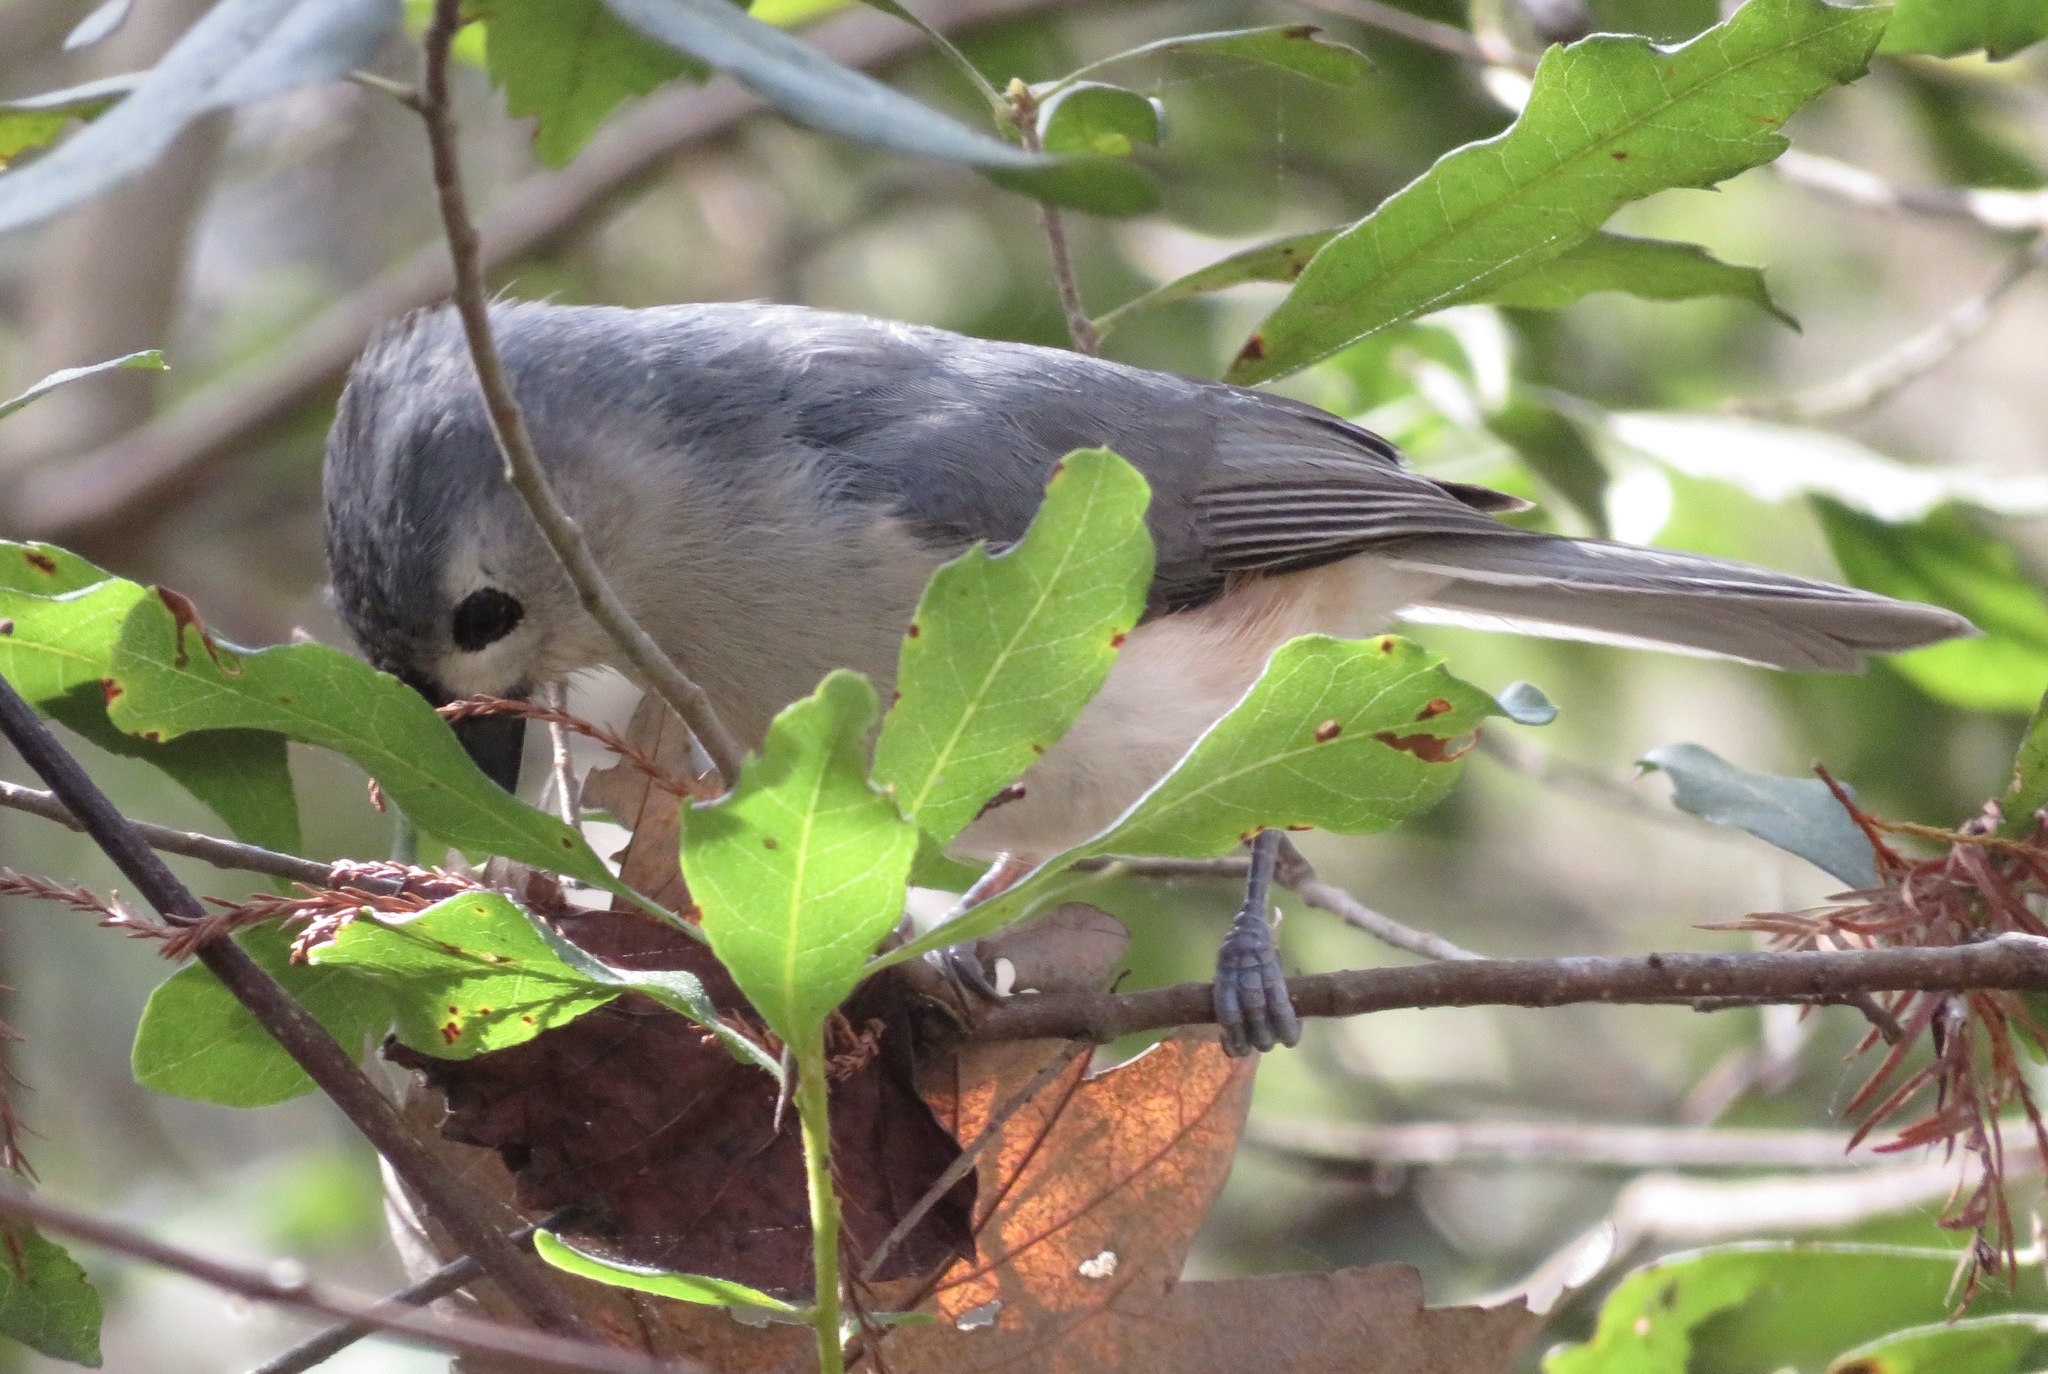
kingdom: Animalia
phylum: Chordata
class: Aves
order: Passeriformes
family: Paridae
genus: Baeolophus
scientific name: Baeolophus bicolor
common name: Tufted titmouse
